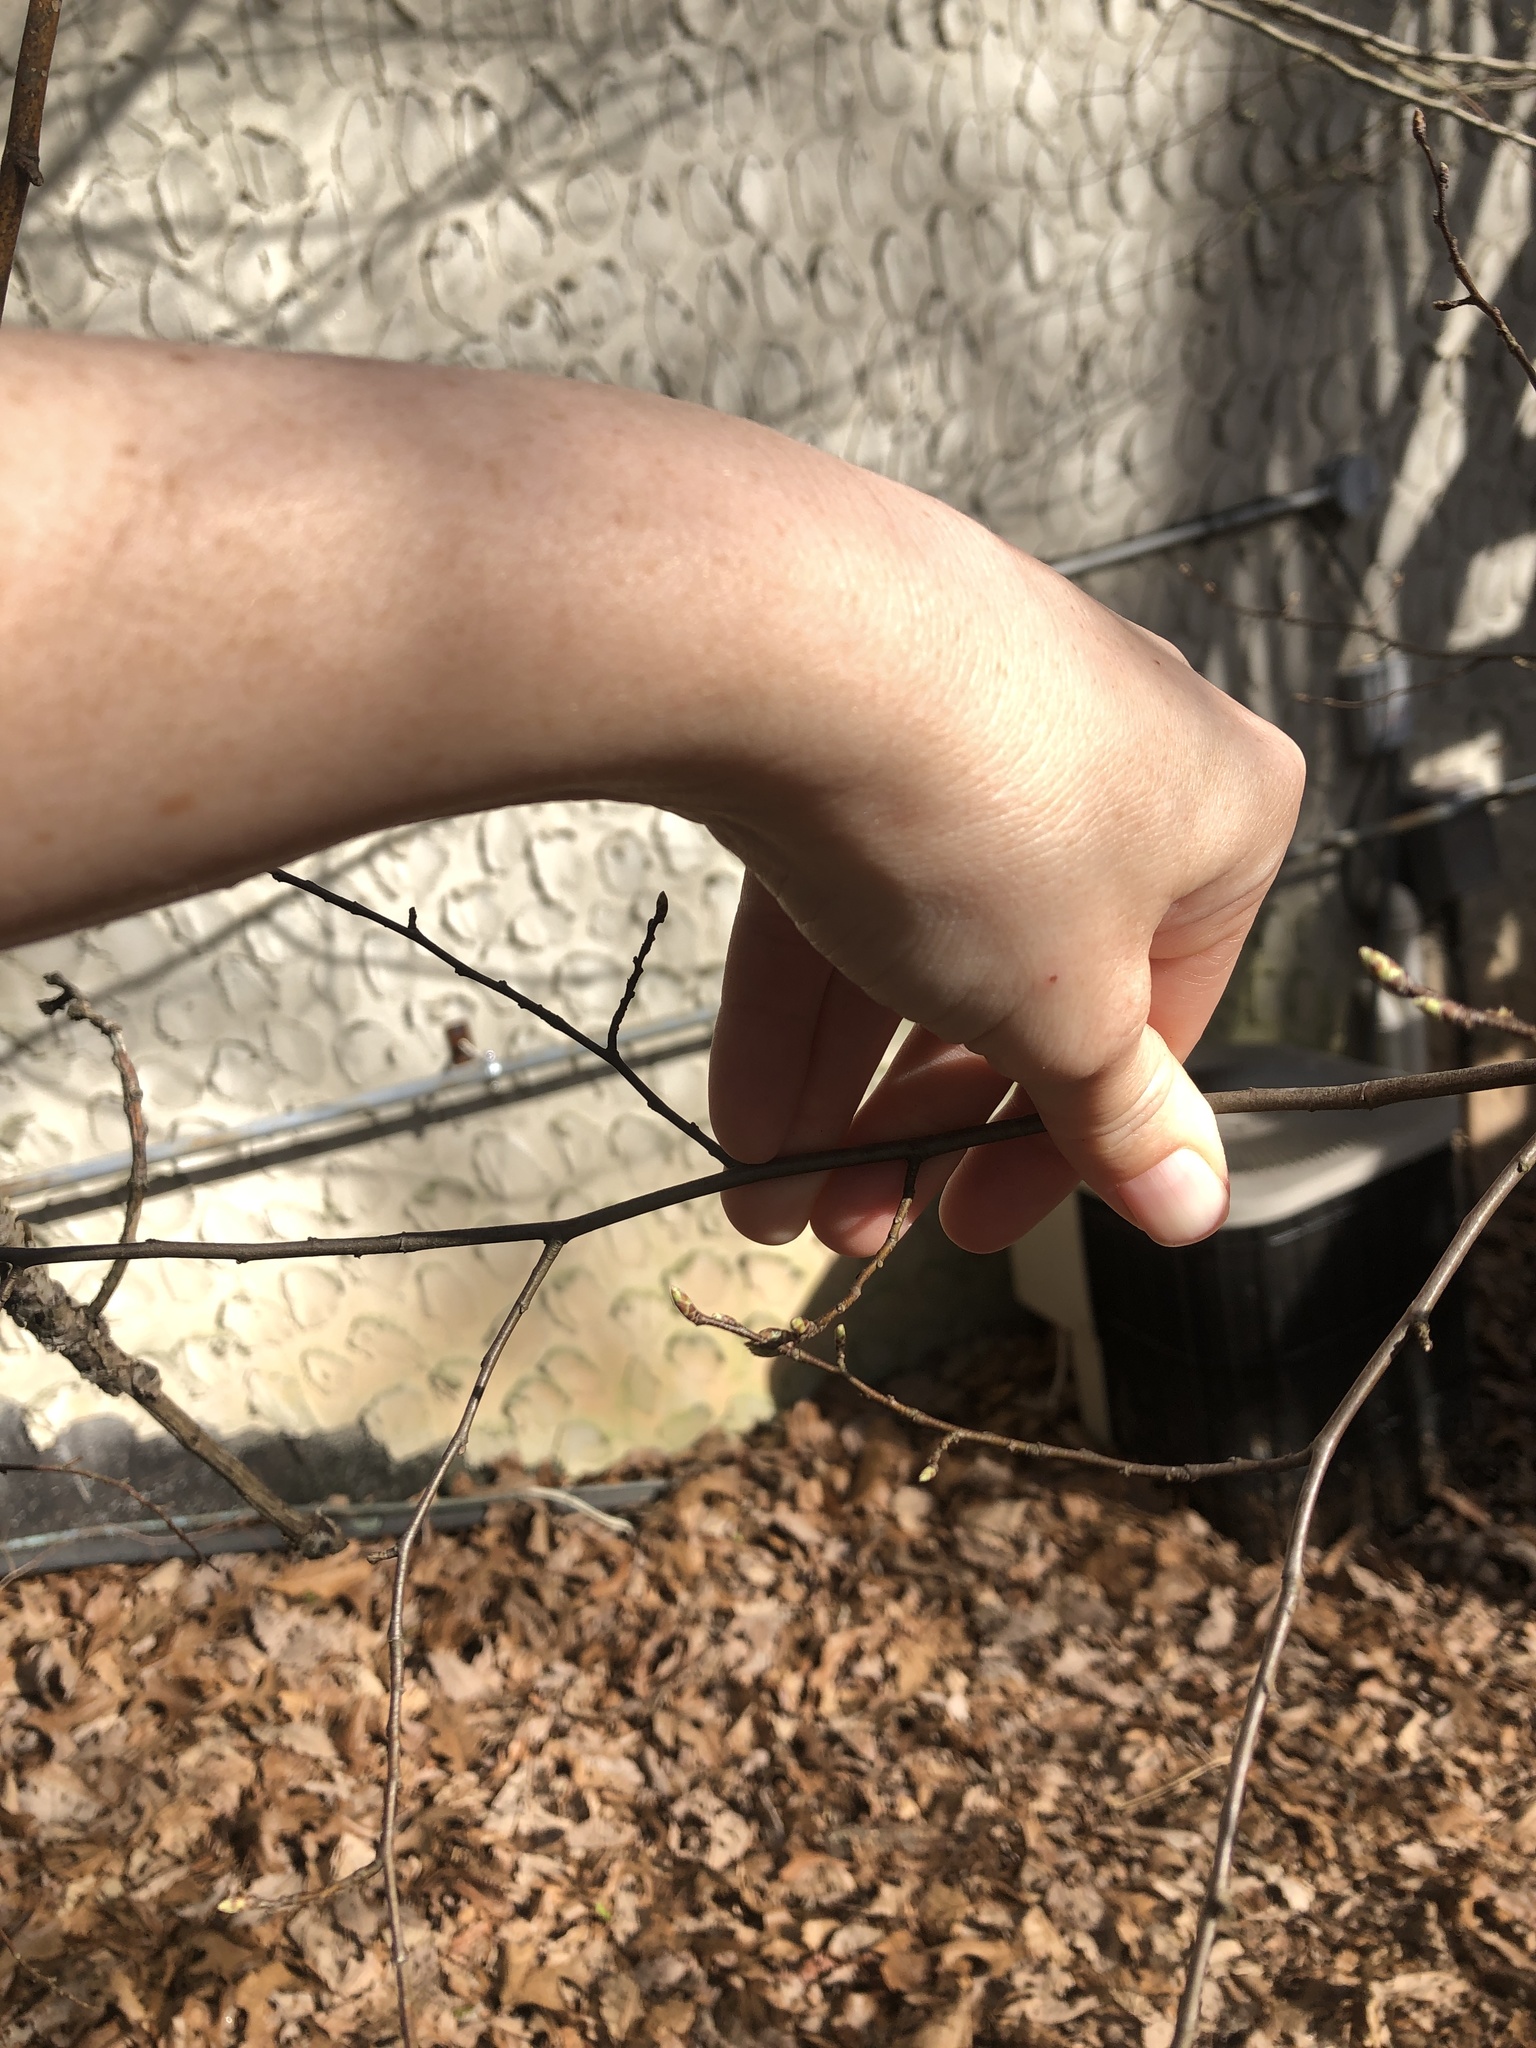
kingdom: Plantae
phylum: Tracheophyta
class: Magnoliopsida
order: Fagales
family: Betulaceae
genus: Carpinus
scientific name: Carpinus caroliniana
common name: American hornbeam
